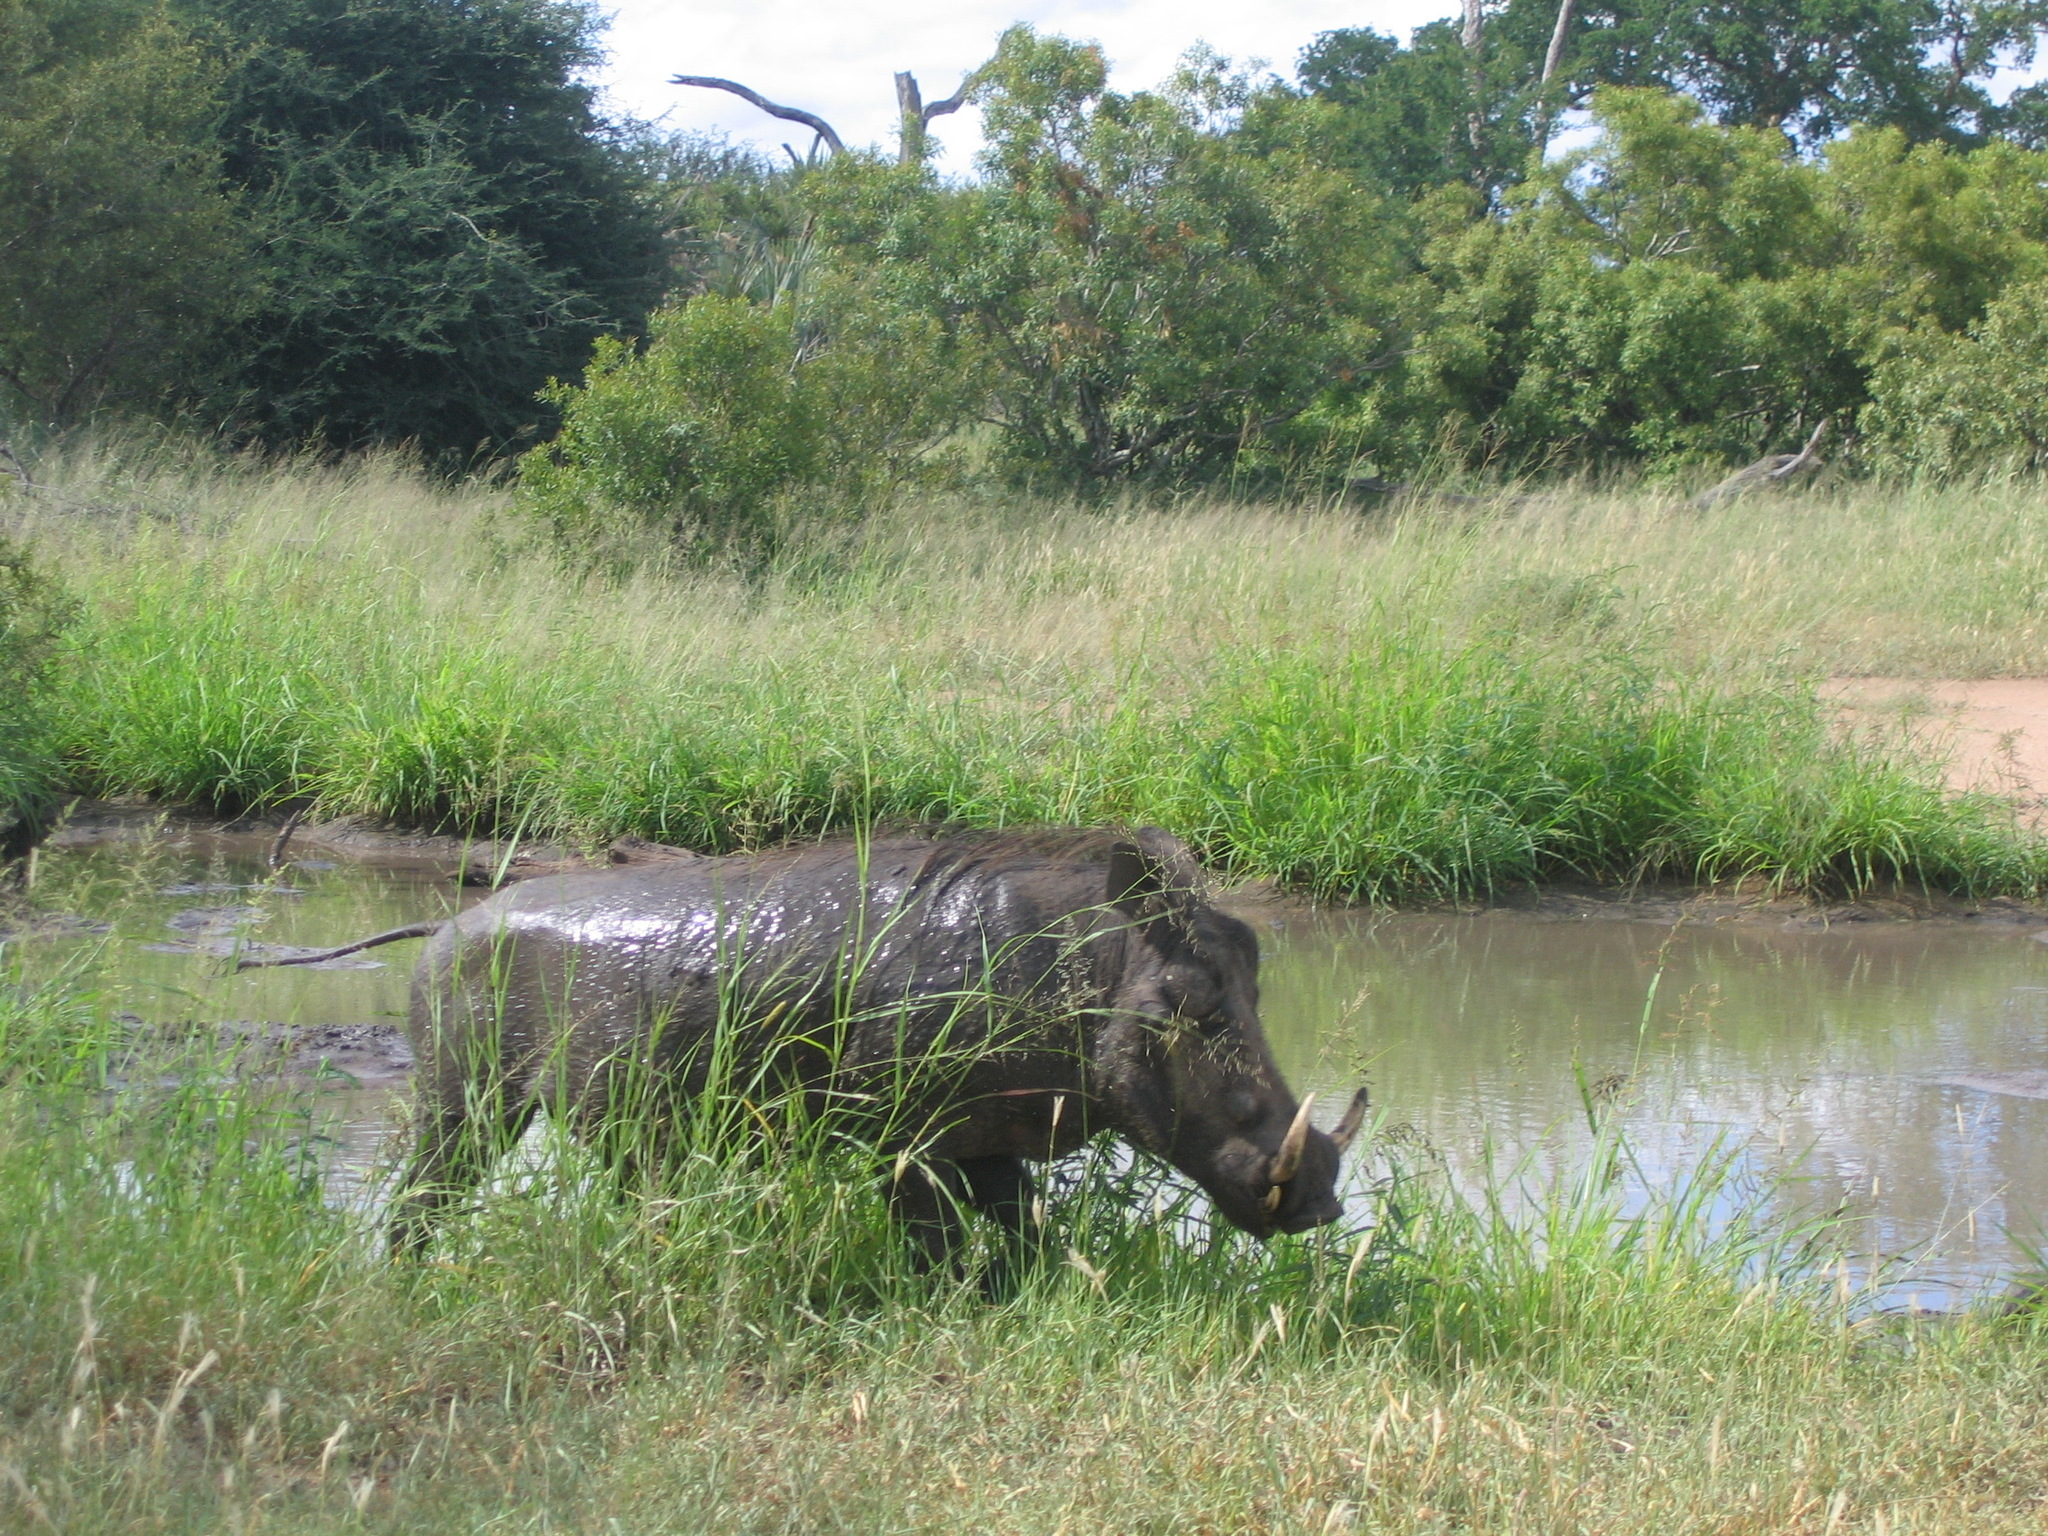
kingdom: Animalia
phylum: Chordata
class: Mammalia
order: Artiodactyla
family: Suidae
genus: Phacochoerus
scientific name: Phacochoerus africanus
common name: Common warthog
